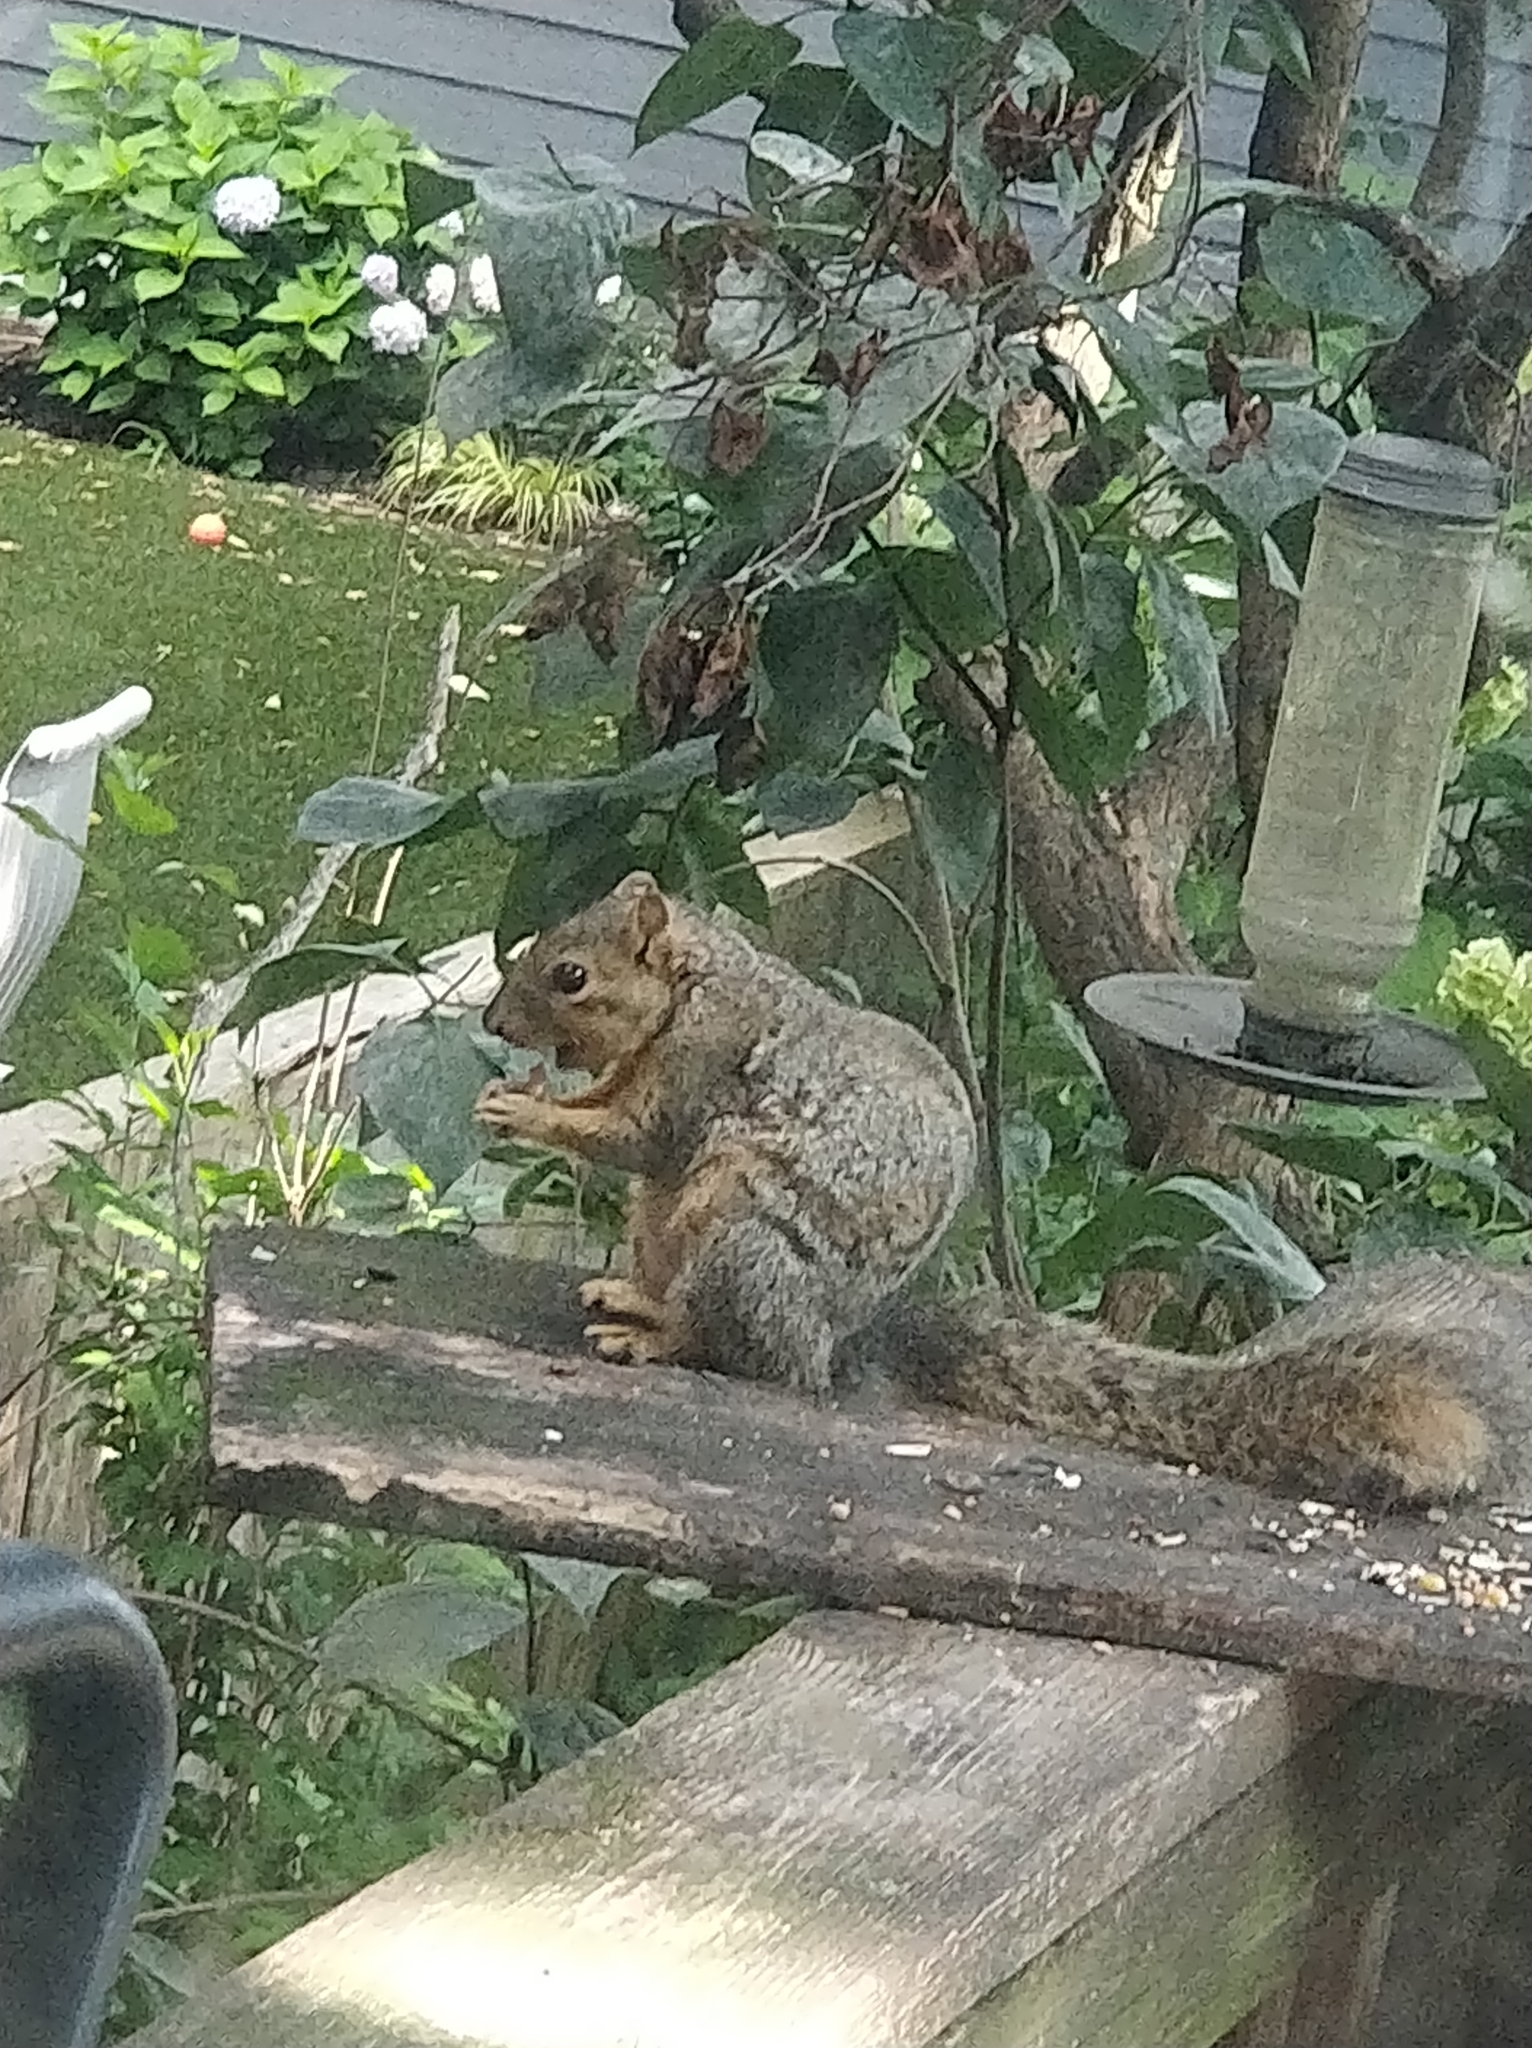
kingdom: Animalia
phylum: Chordata
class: Mammalia
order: Rodentia
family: Sciuridae
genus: Sciurus
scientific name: Sciurus niger
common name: Fox squirrel
